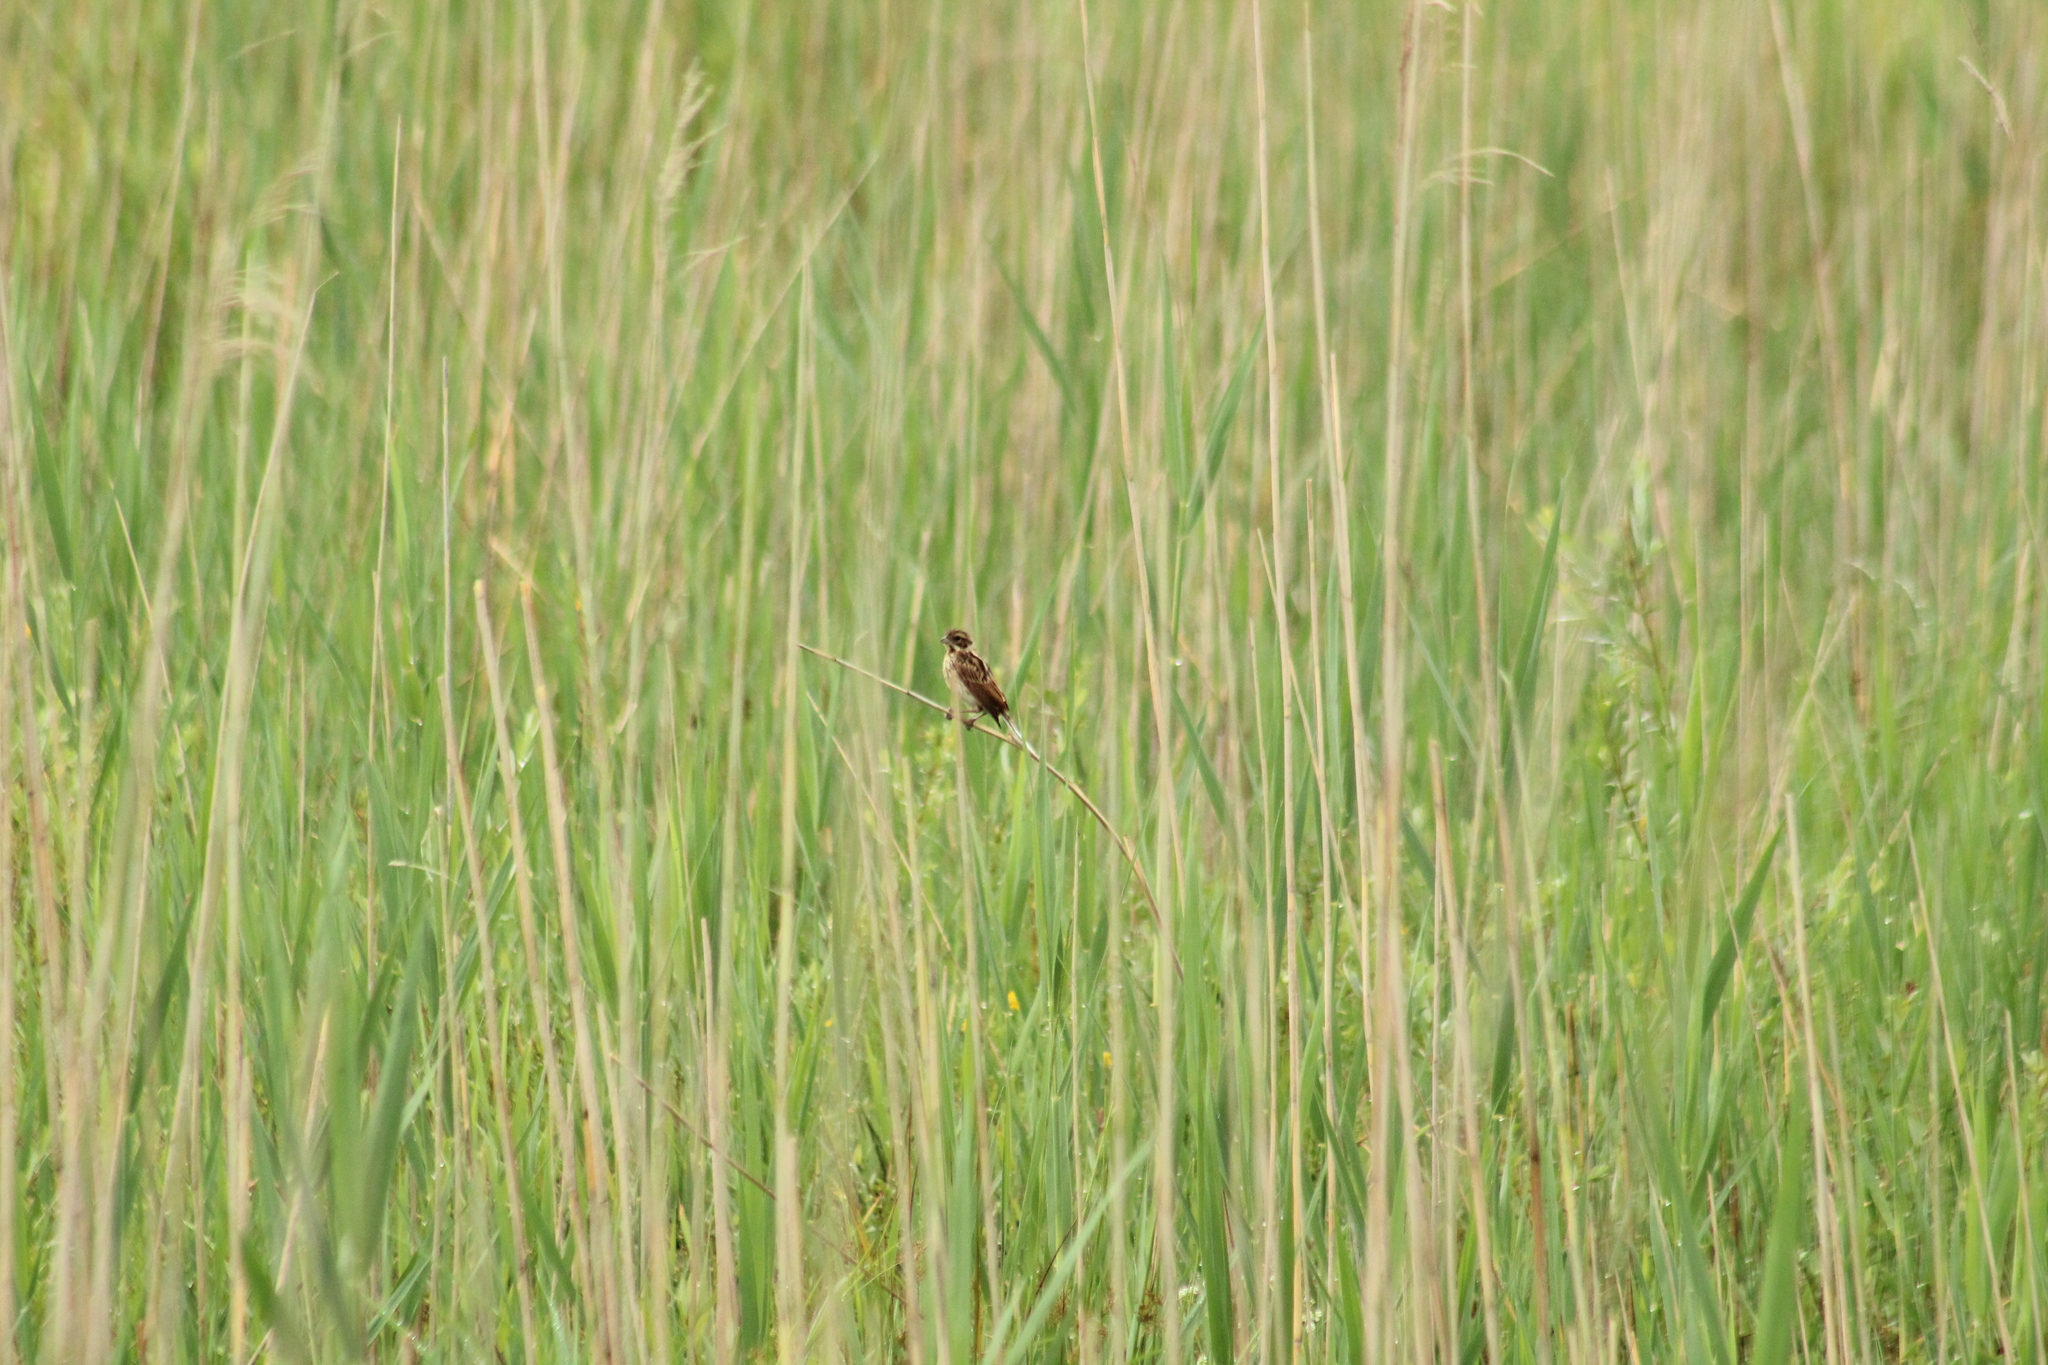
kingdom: Animalia
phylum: Chordata
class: Aves
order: Passeriformes
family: Emberizidae
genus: Emberiza
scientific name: Emberiza schoeniclus
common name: Reed bunting
